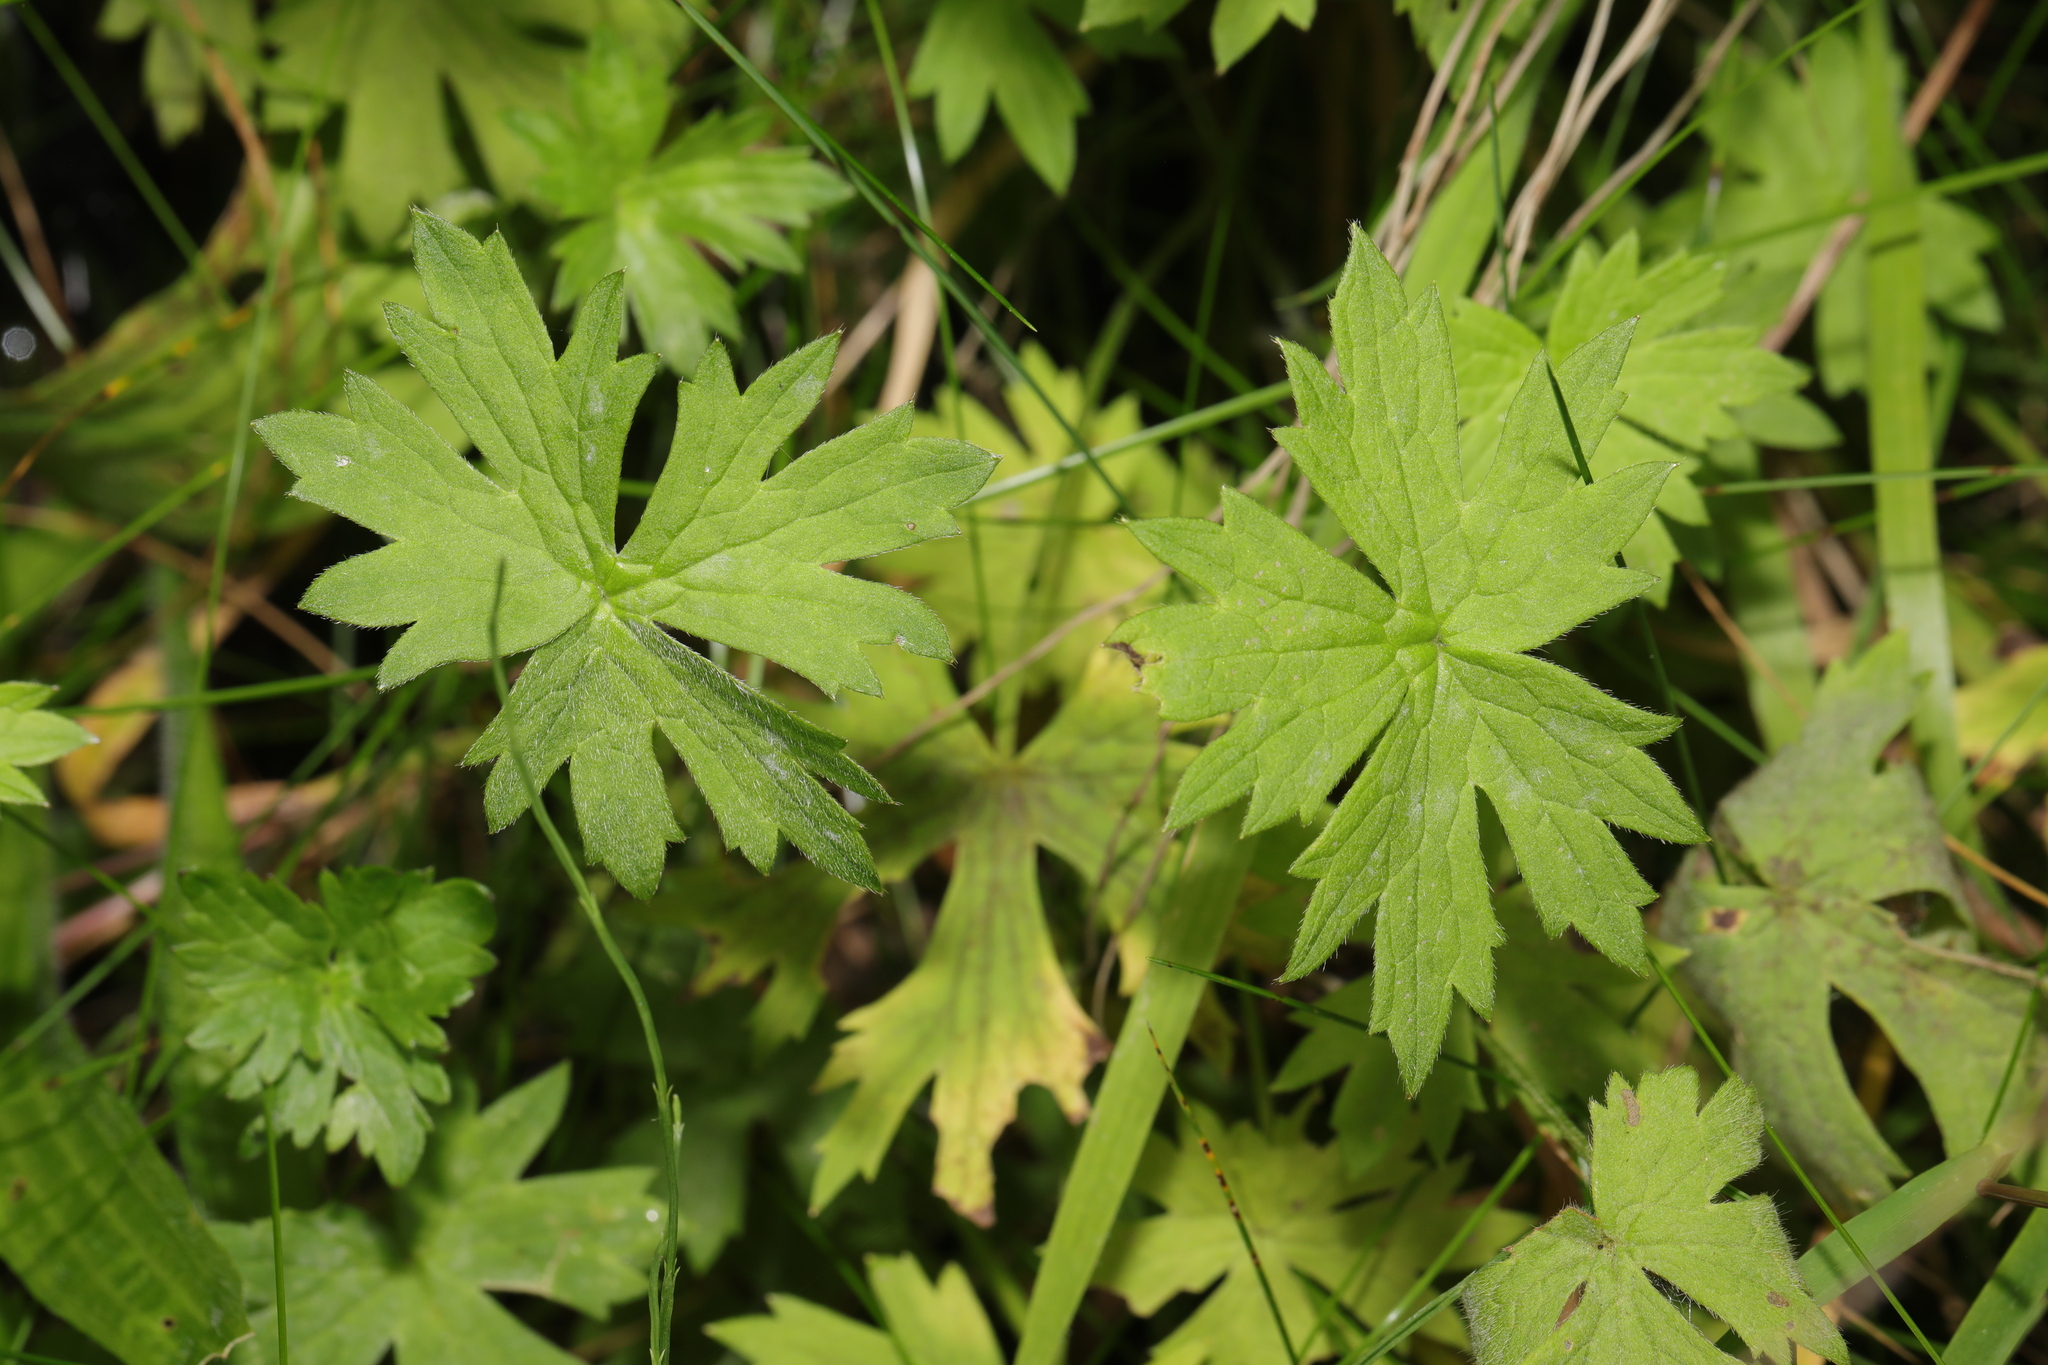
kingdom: Plantae
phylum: Tracheophyta
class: Magnoliopsida
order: Ranunculales
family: Ranunculaceae
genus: Ranunculus
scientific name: Ranunculus acris
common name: Meadow buttercup
